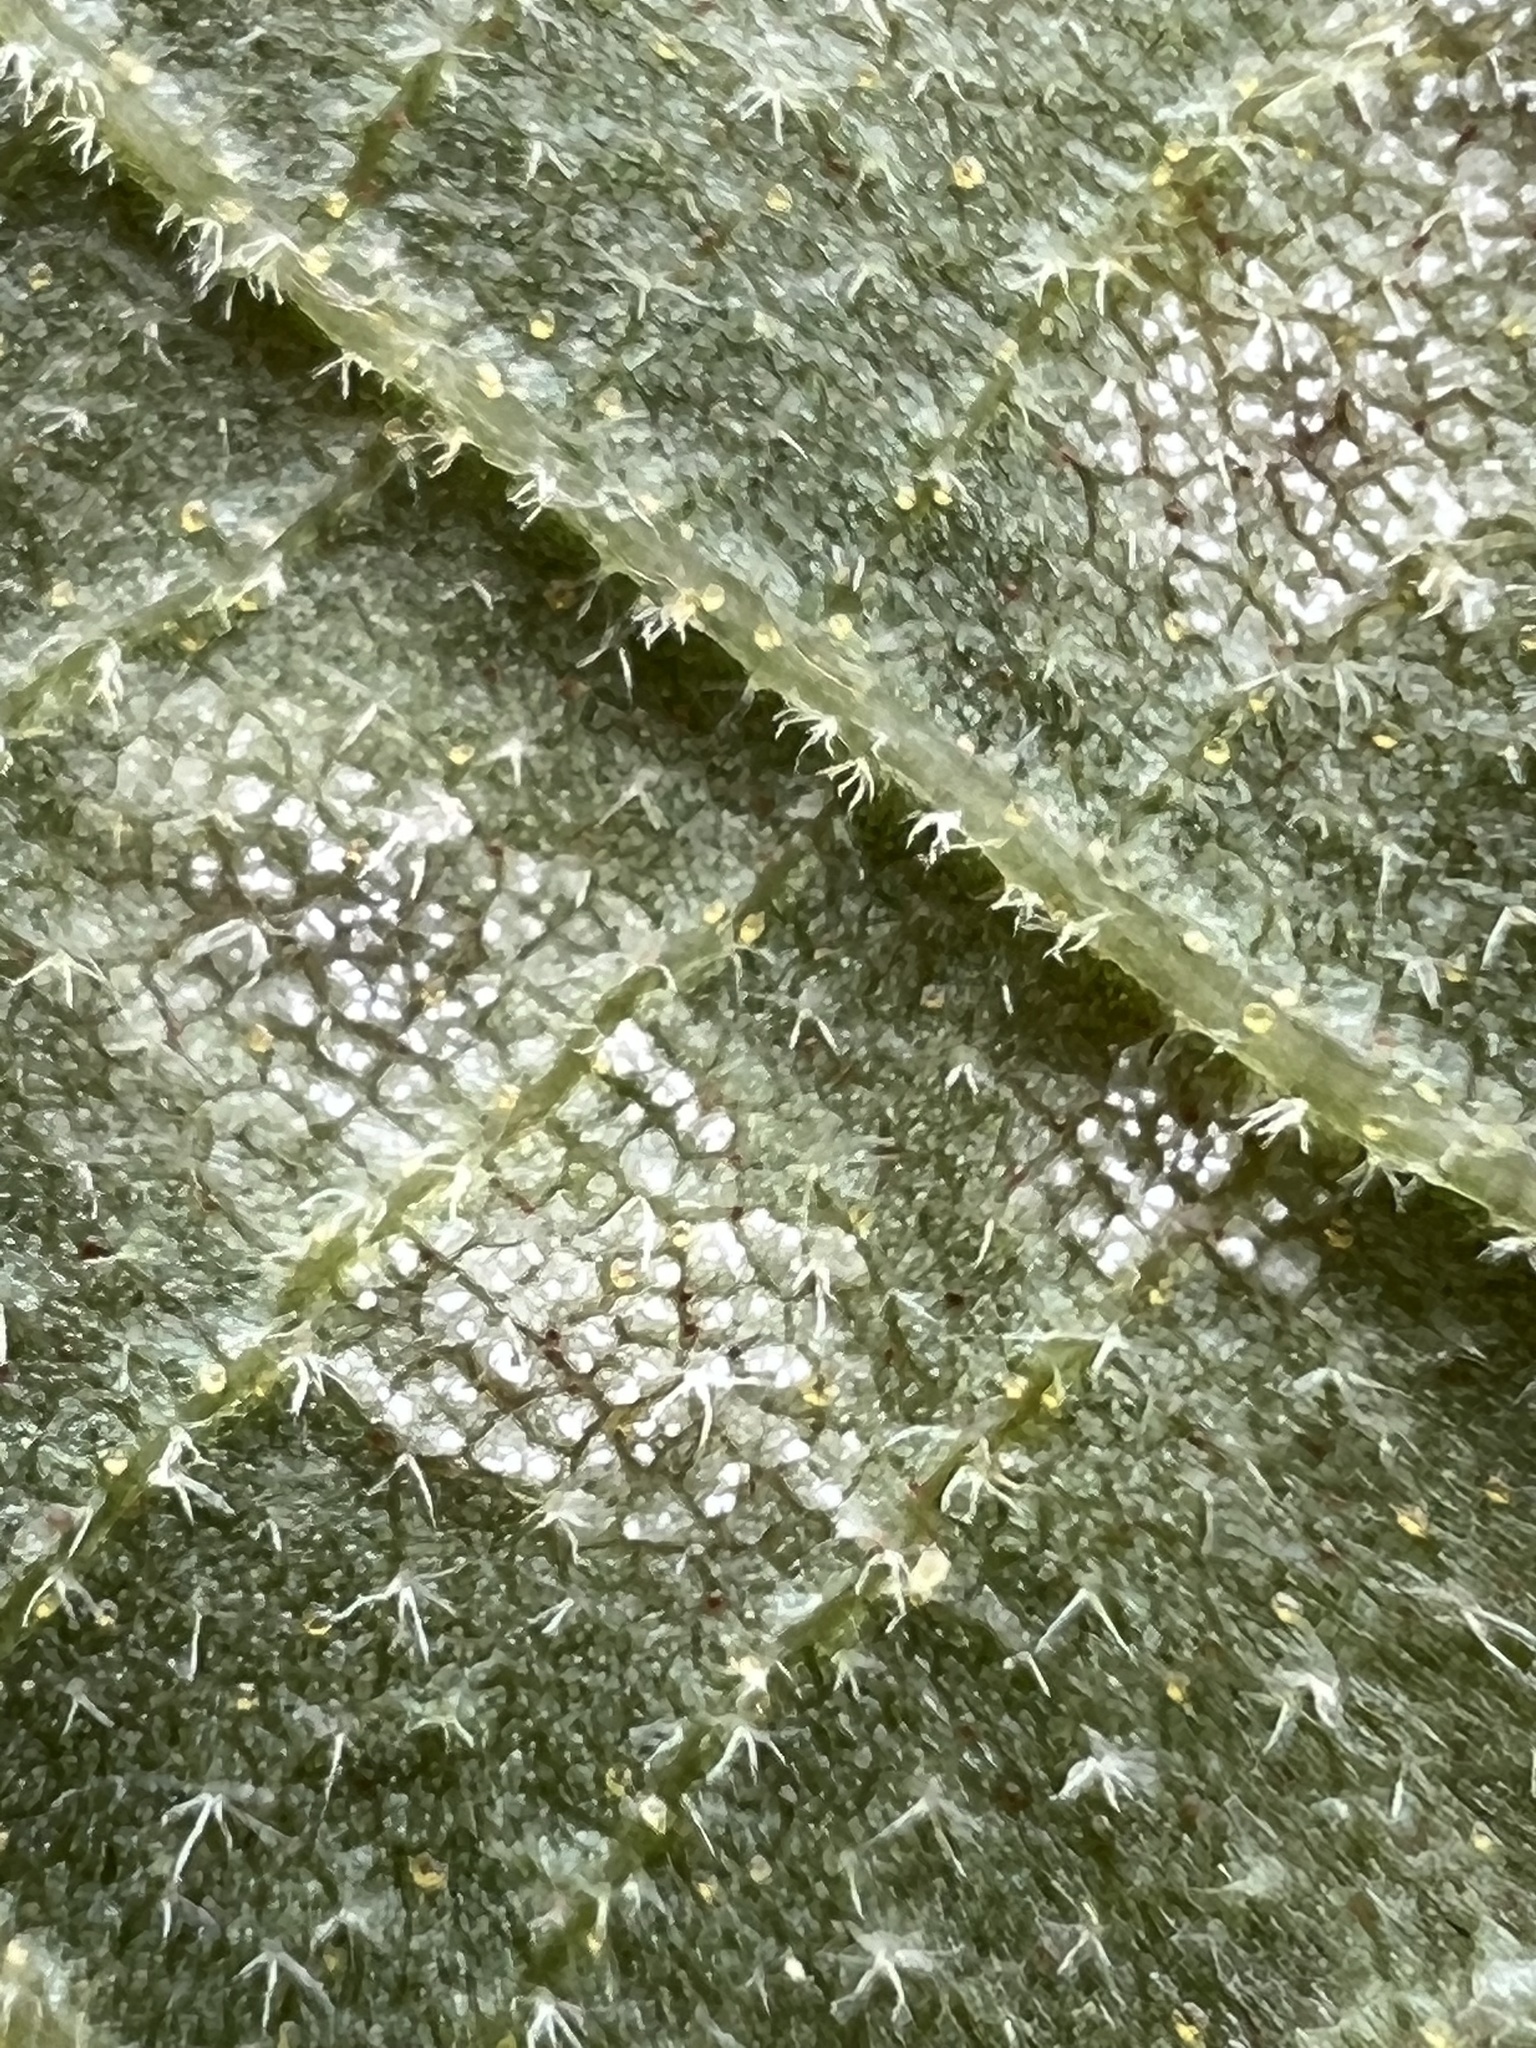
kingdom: Fungi
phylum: Basidiomycota
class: Exobasidiomycetes
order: Microstromatales
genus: Pseudomicrostroma
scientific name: Pseudomicrostroma juglandis
